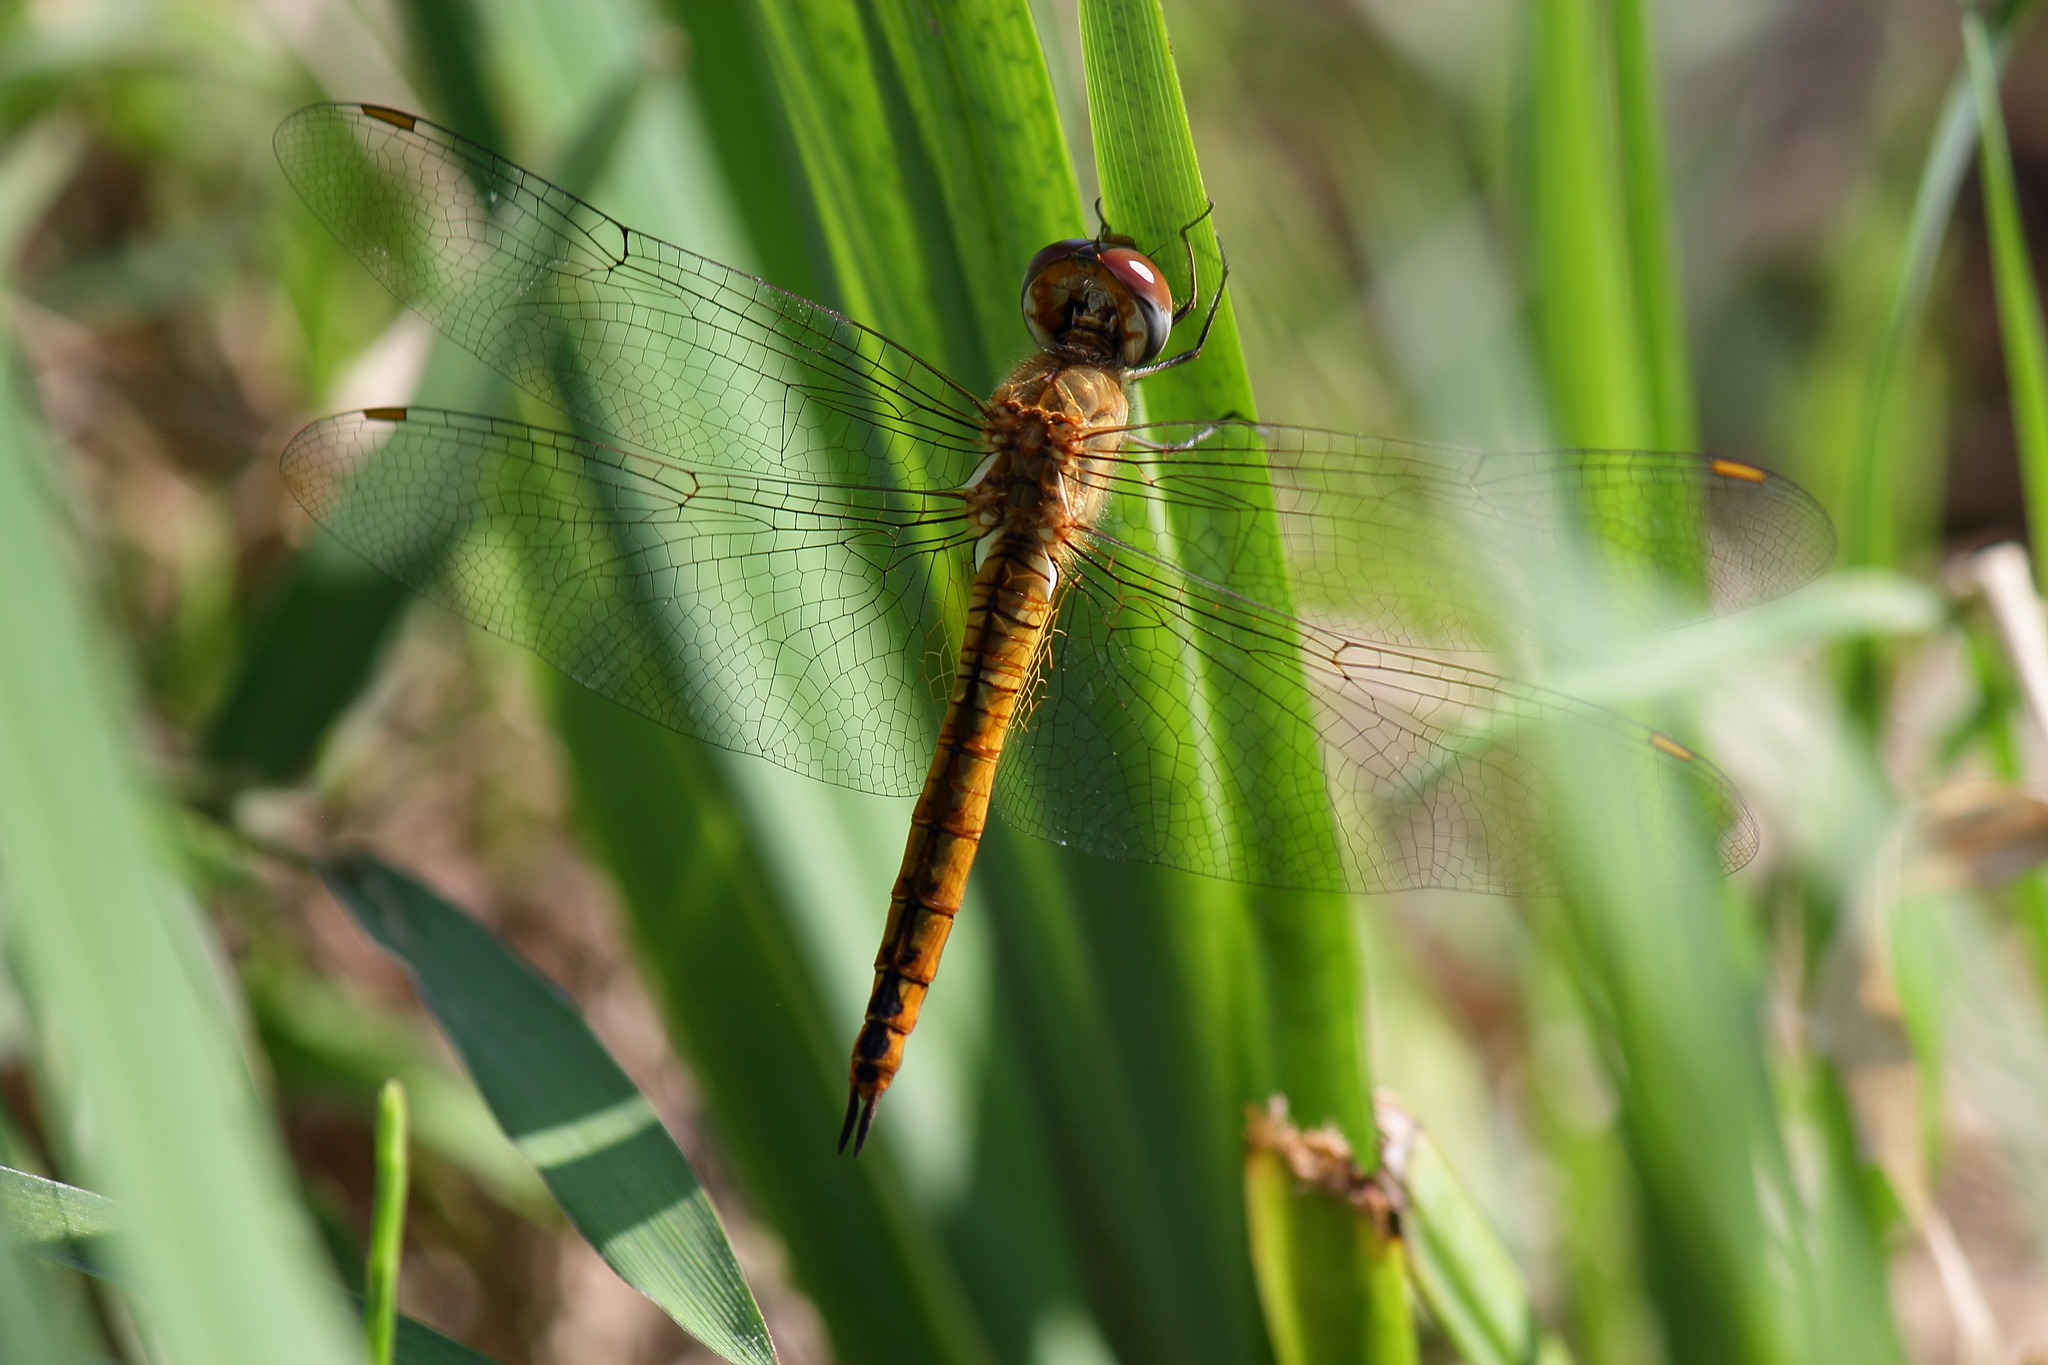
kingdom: Animalia
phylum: Arthropoda
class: Insecta
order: Odonata
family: Libellulidae
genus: Pantala
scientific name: Pantala flavescens
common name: Wandering glider
